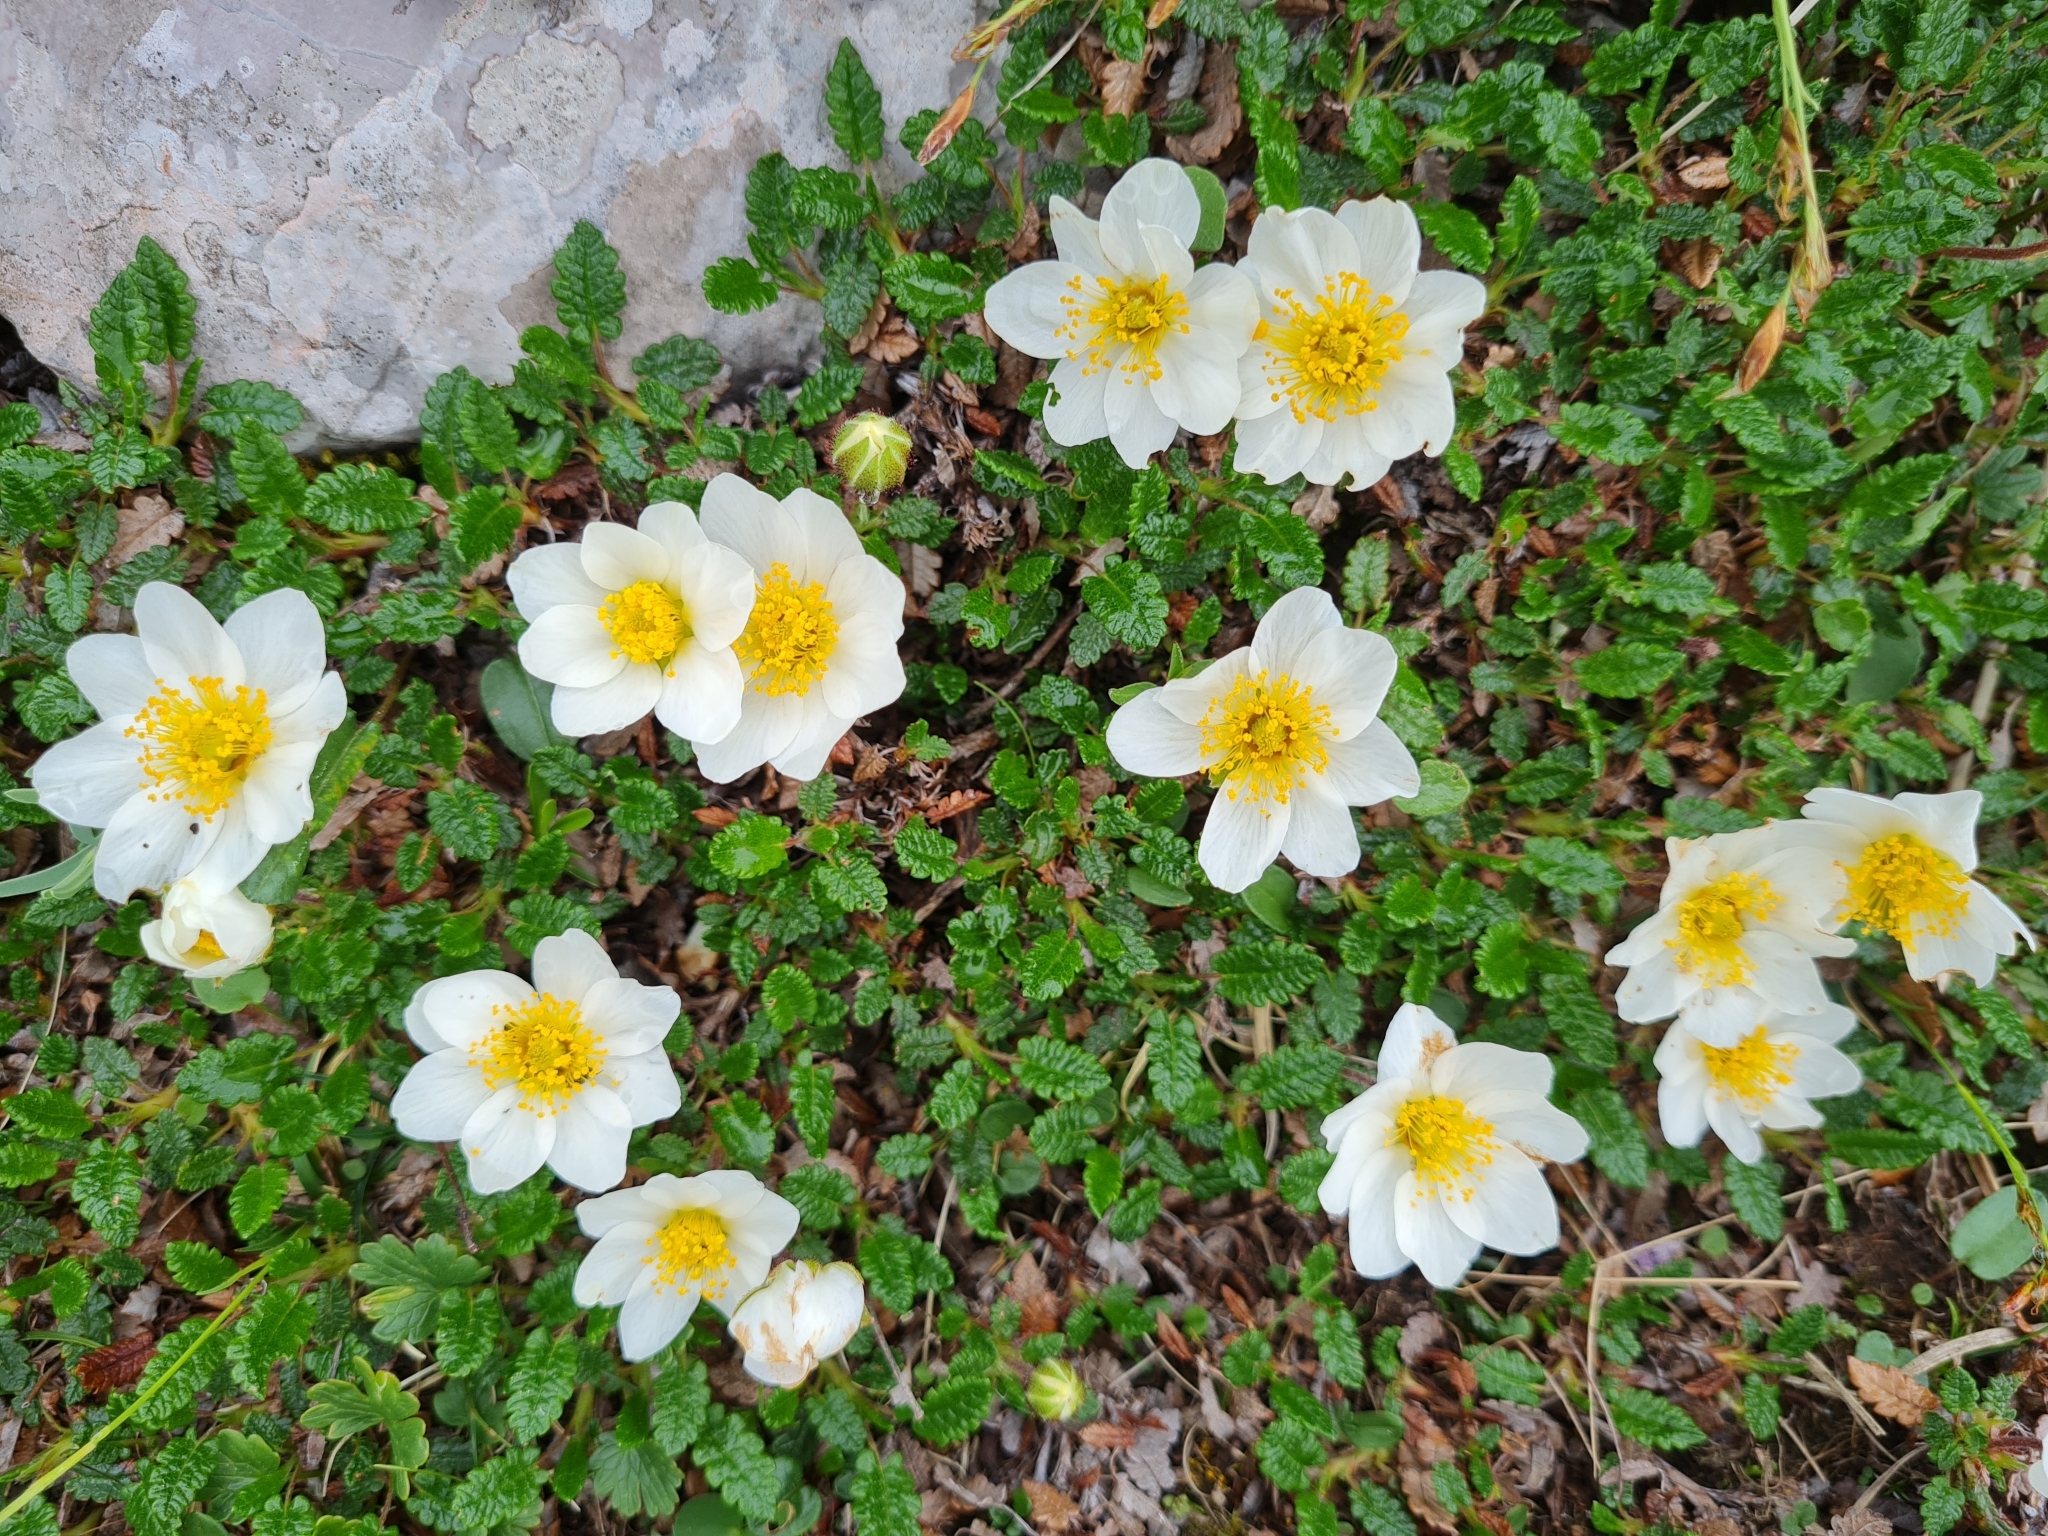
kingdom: Plantae
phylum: Tracheophyta
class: Magnoliopsida
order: Rosales
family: Rosaceae
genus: Dryas
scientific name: Dryas octopetala
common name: Eight-petal mountain-avens
